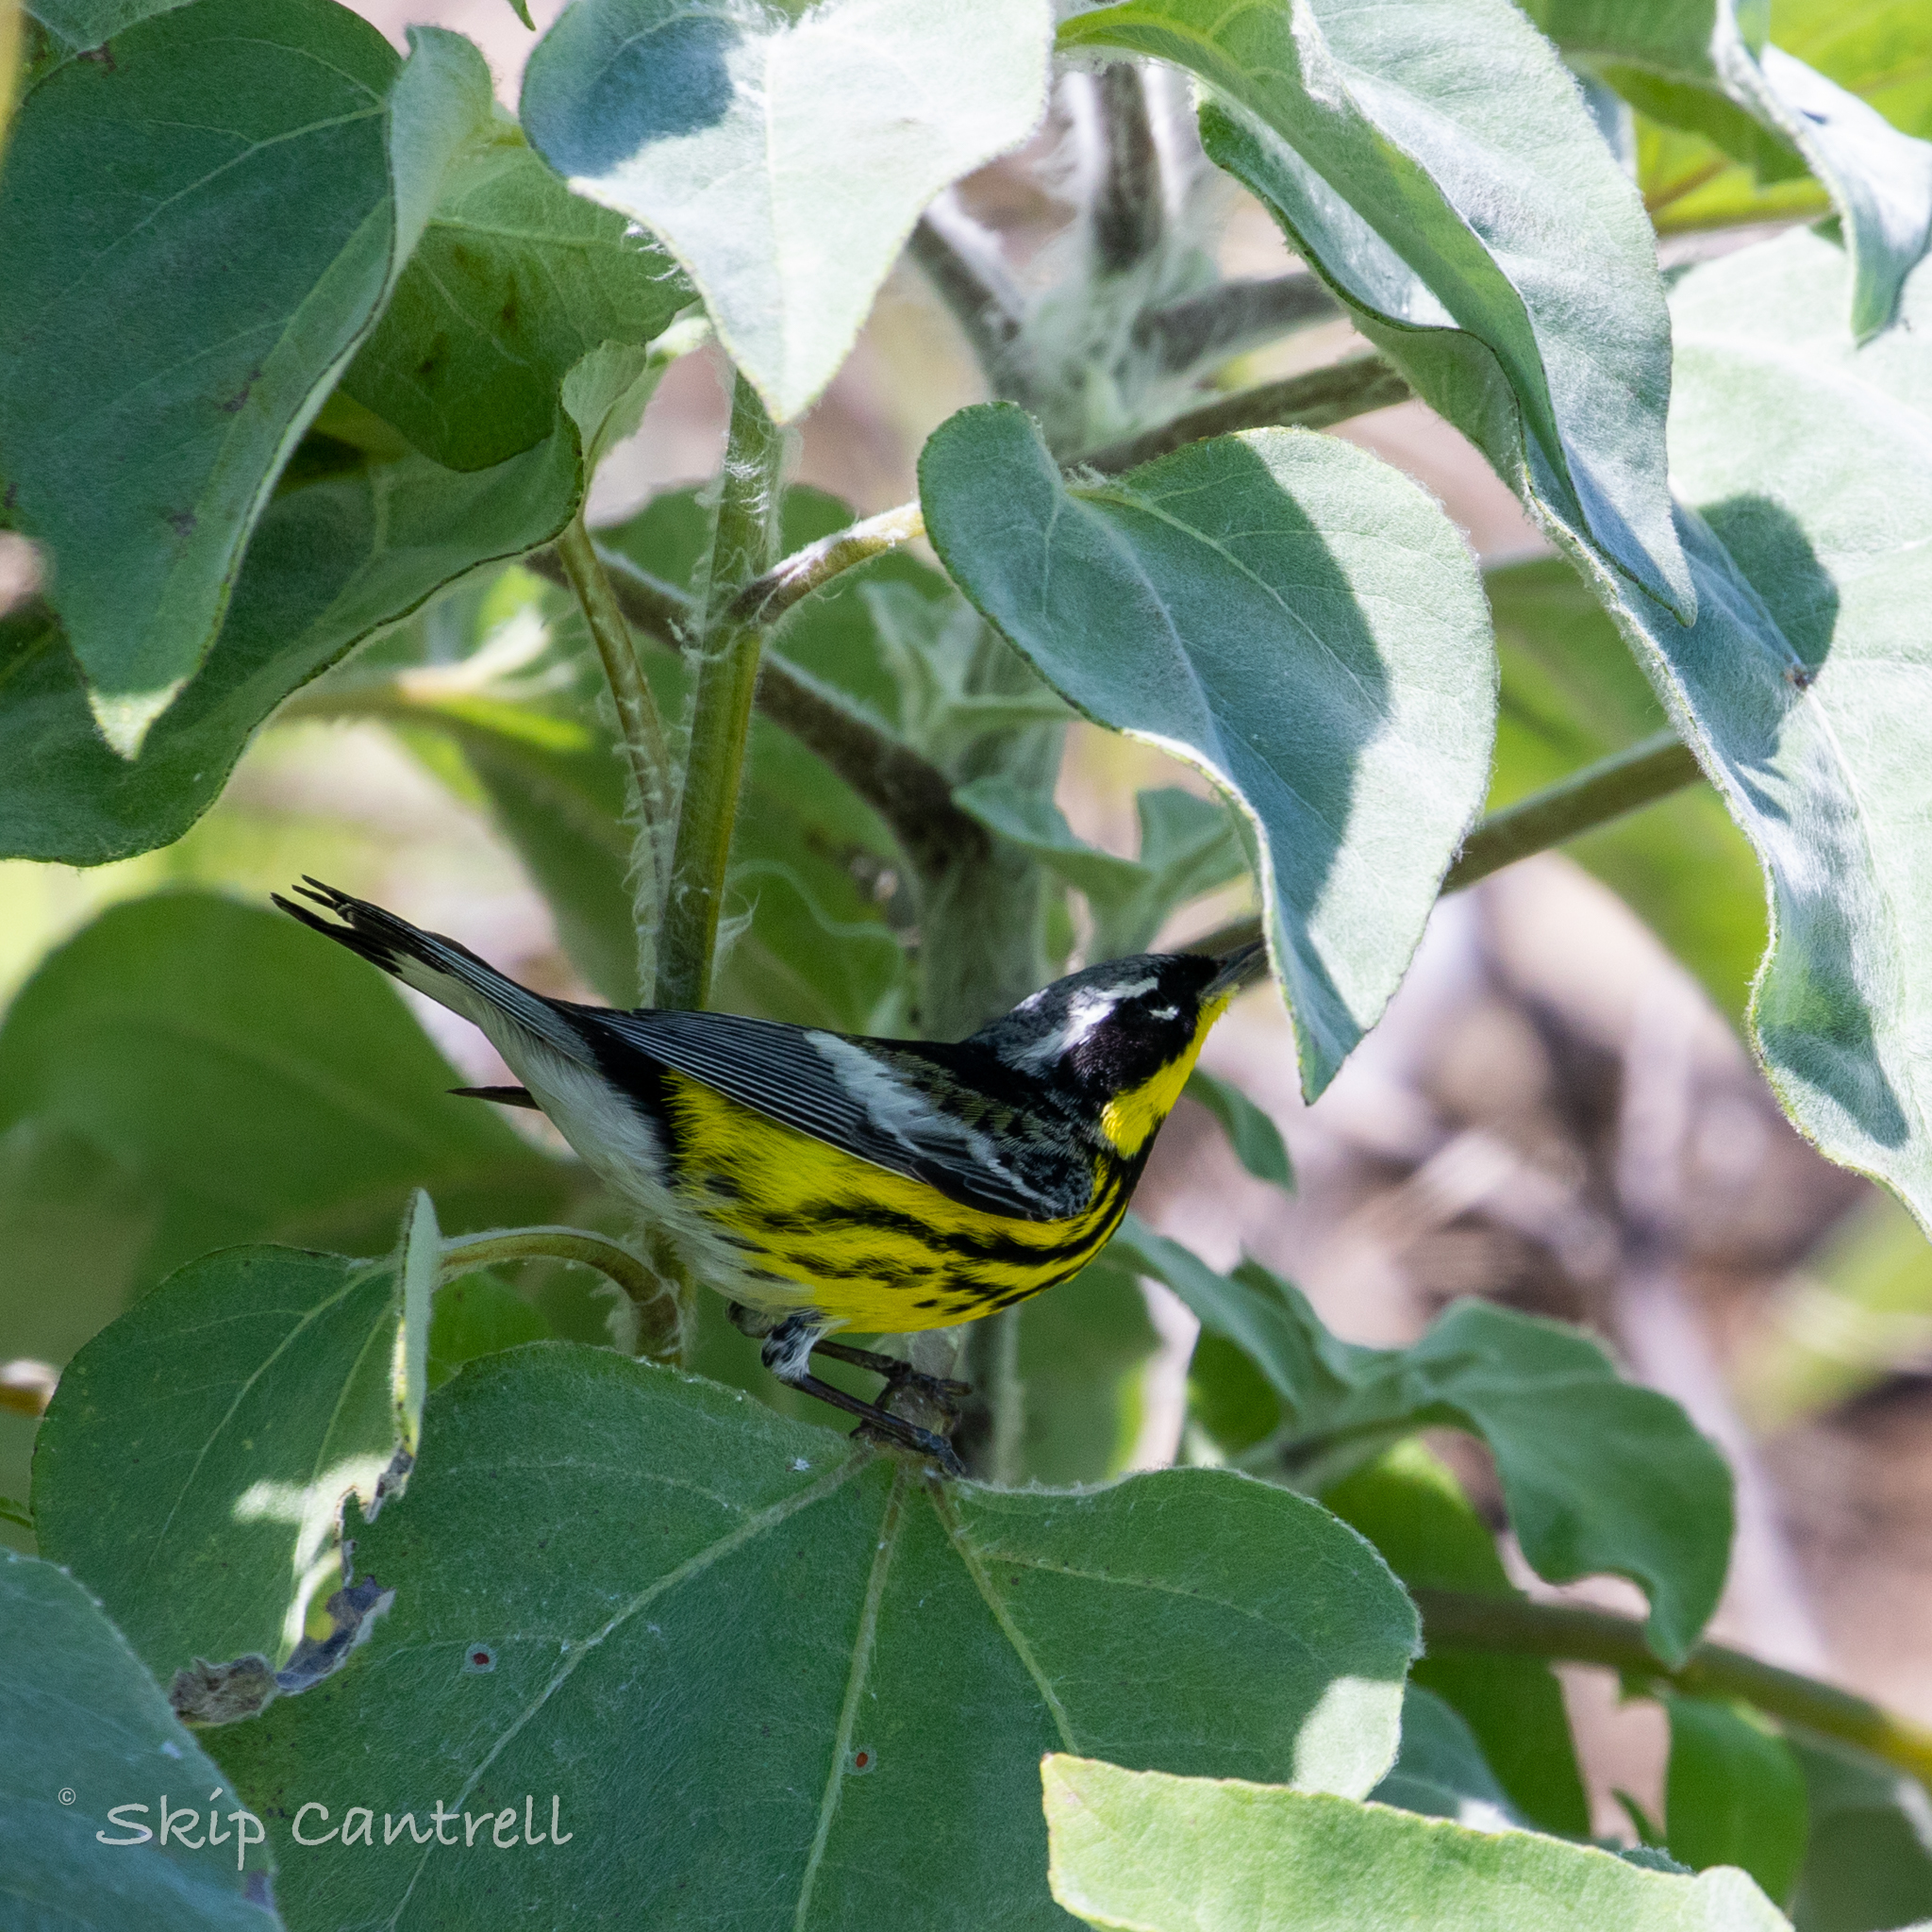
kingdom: Animalia
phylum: Chordata
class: Aves
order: Passeriformes
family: Parulidae
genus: Setophaga
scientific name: Setophaga magnolia
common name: Magnolia warbler
